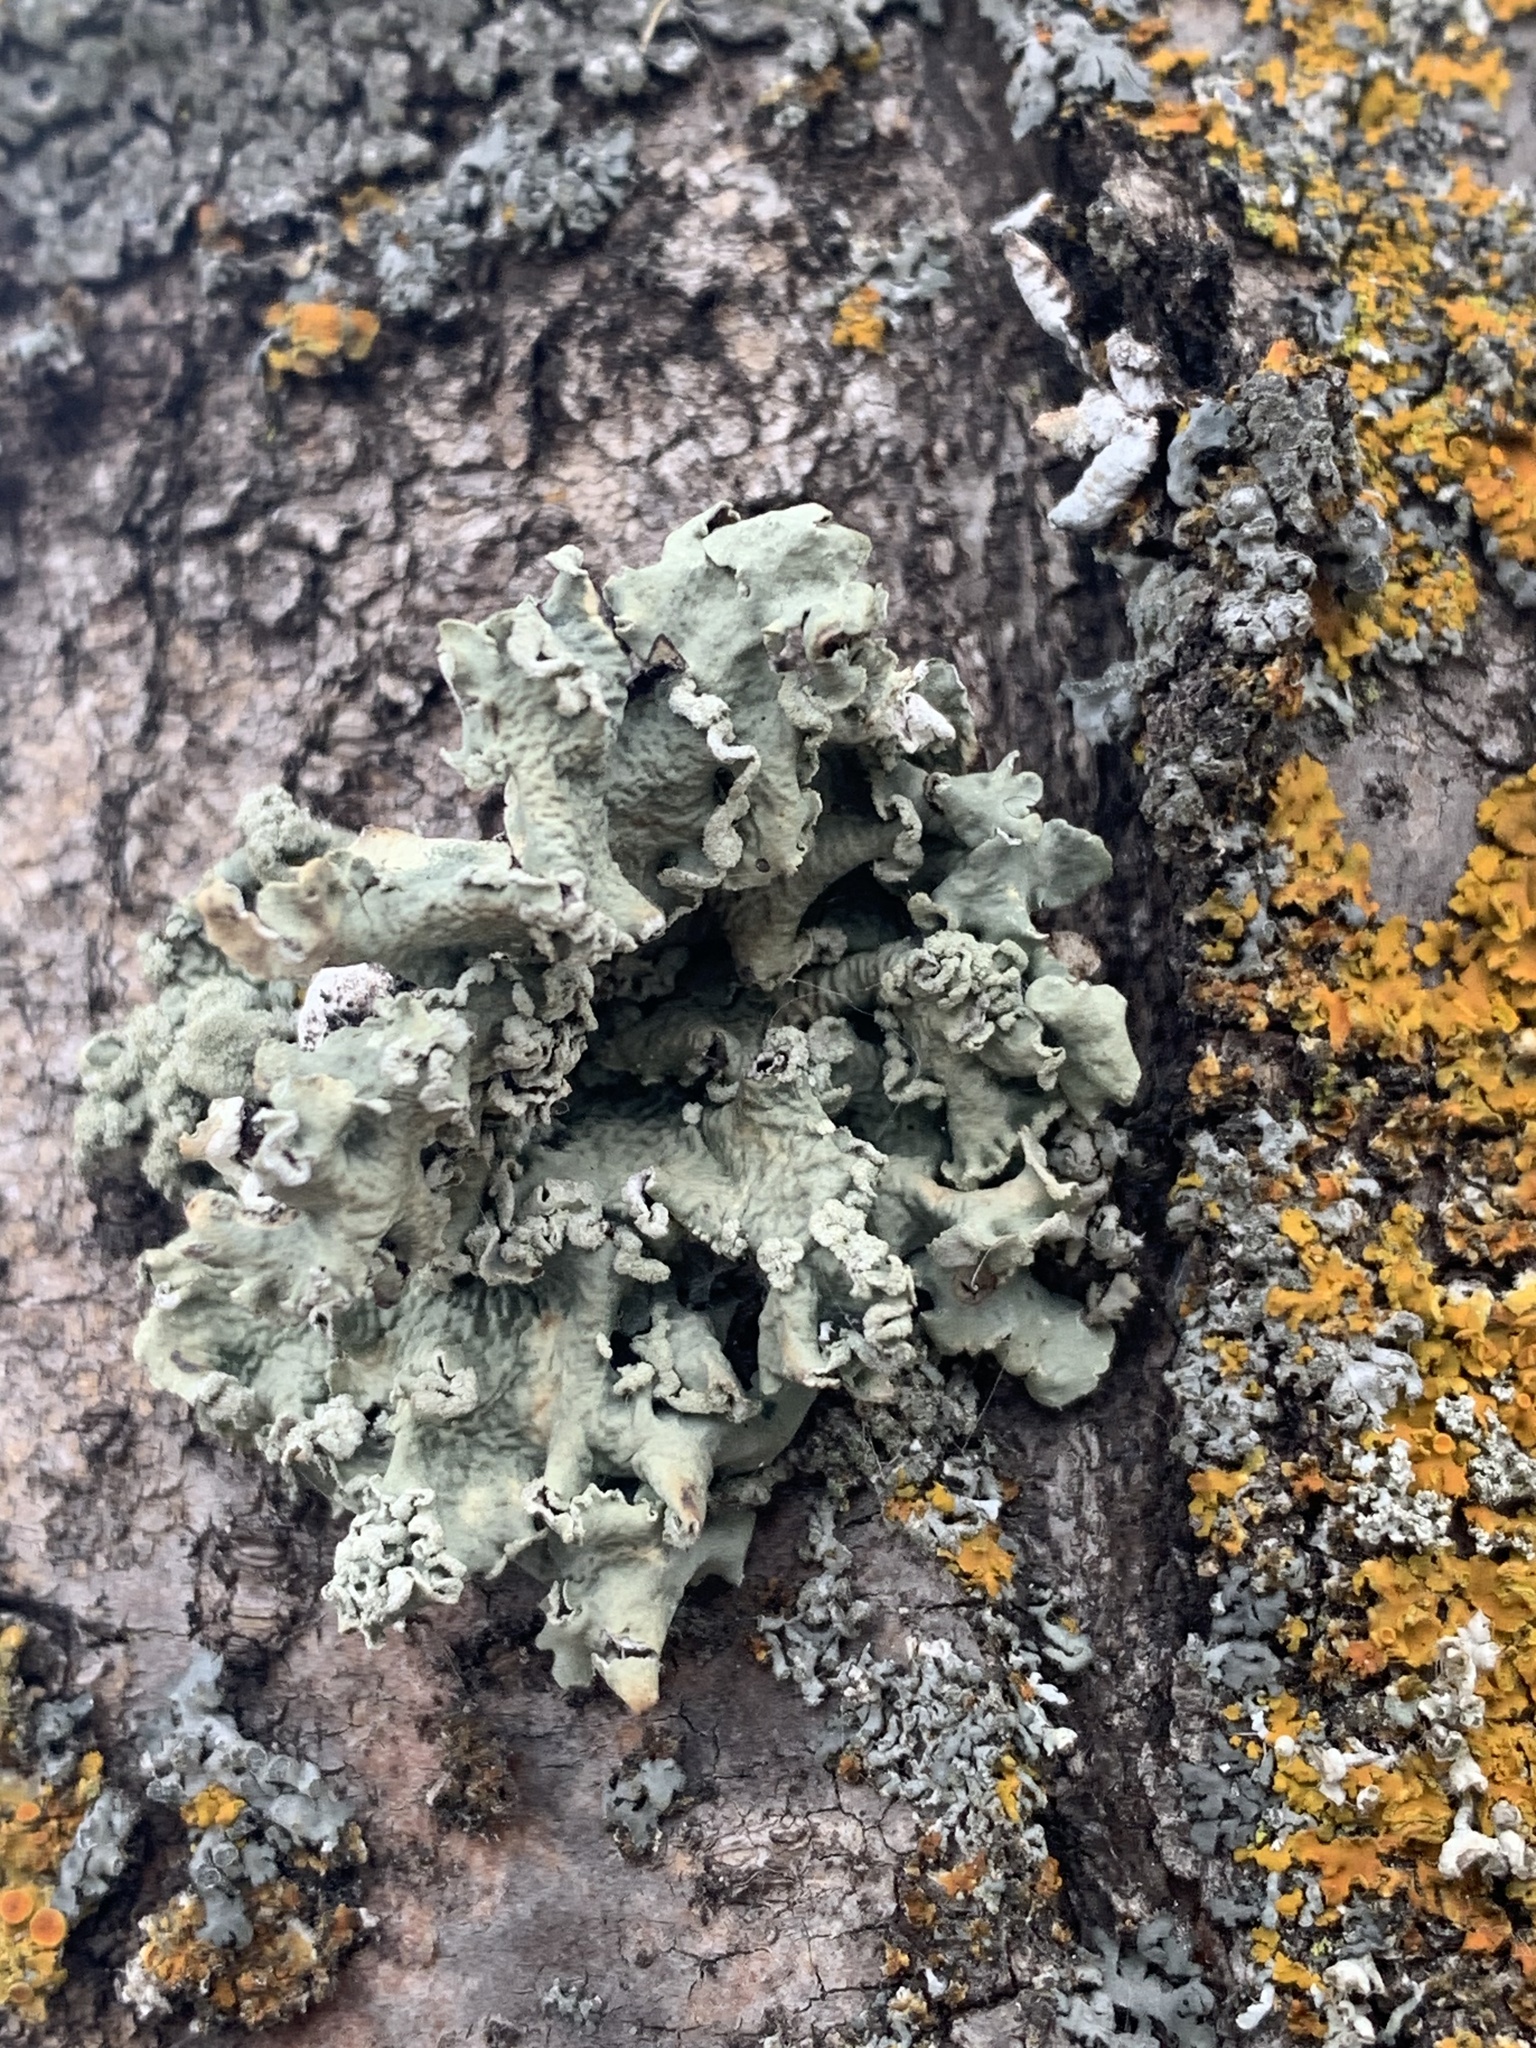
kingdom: Fungi
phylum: Ascomycota
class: Lecanoromycetes
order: Lecanorales
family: Parmeliaceae
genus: Flavopunctelia
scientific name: Flavopunctelia soredica
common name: Powder-edged speckled greenshield
